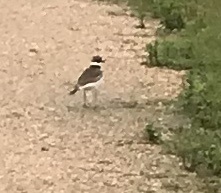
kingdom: Animalia
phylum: Chordata
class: Aves
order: Charadriiformes
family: Charadriidae
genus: Charadrius
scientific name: Charadrius vociferus
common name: Killdeer
